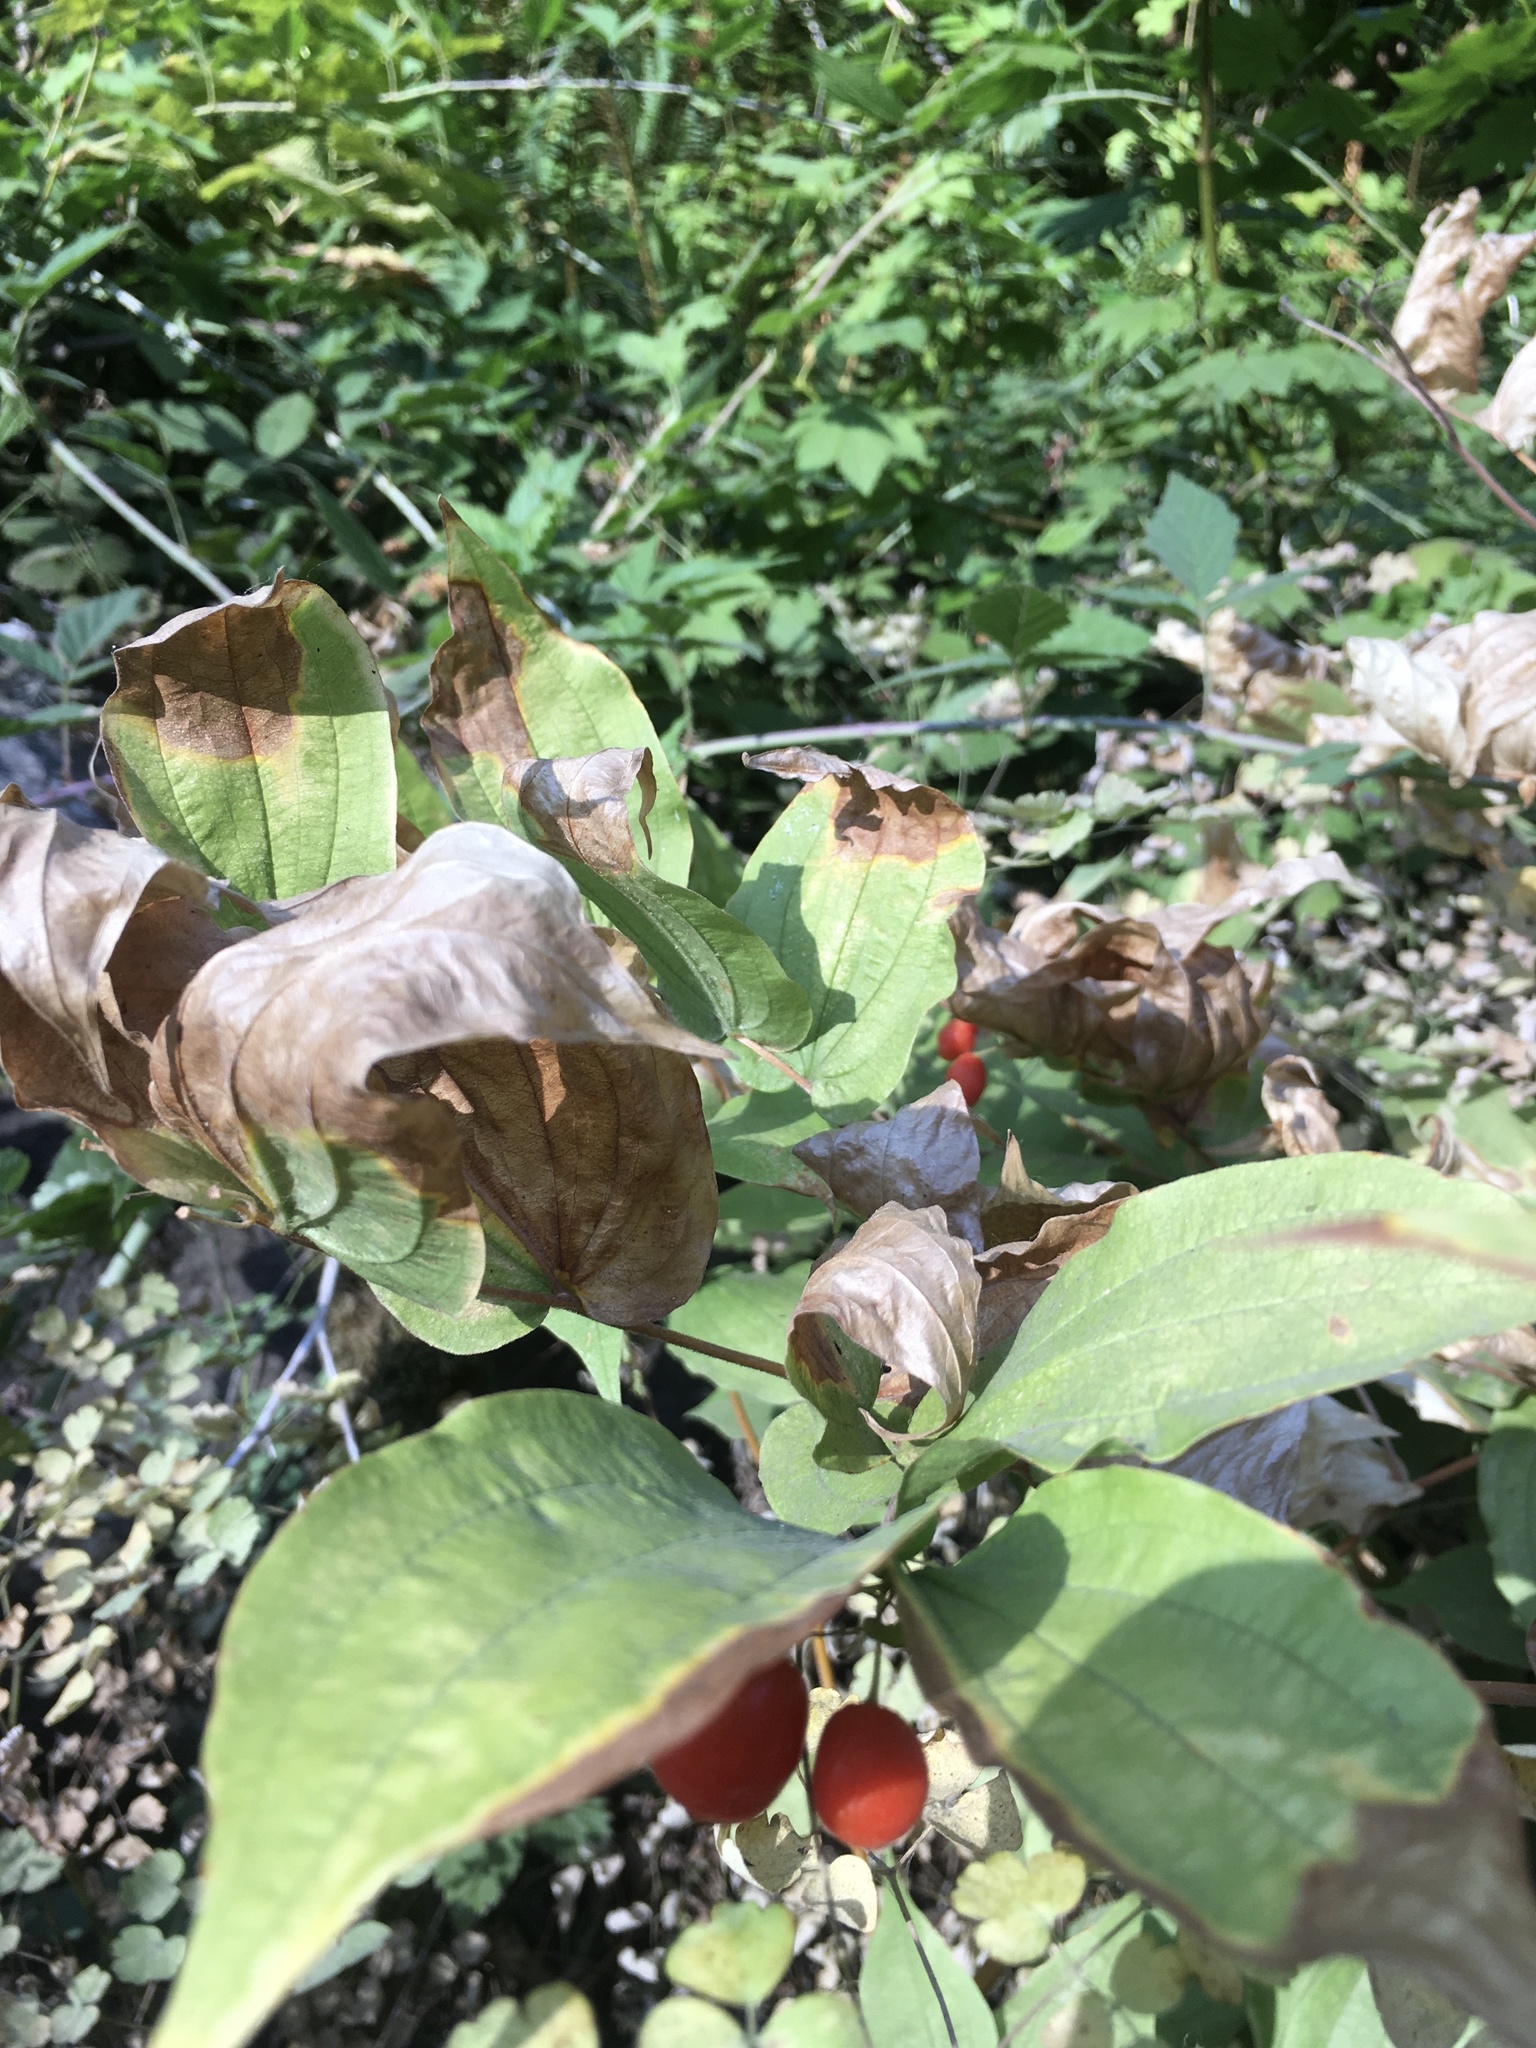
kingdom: Plantae
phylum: Tracheophyta
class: Liliopsida
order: Liliales
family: Liliaceae
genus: Prosartes
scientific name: Prosartes hookeri
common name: Fairy-bells
